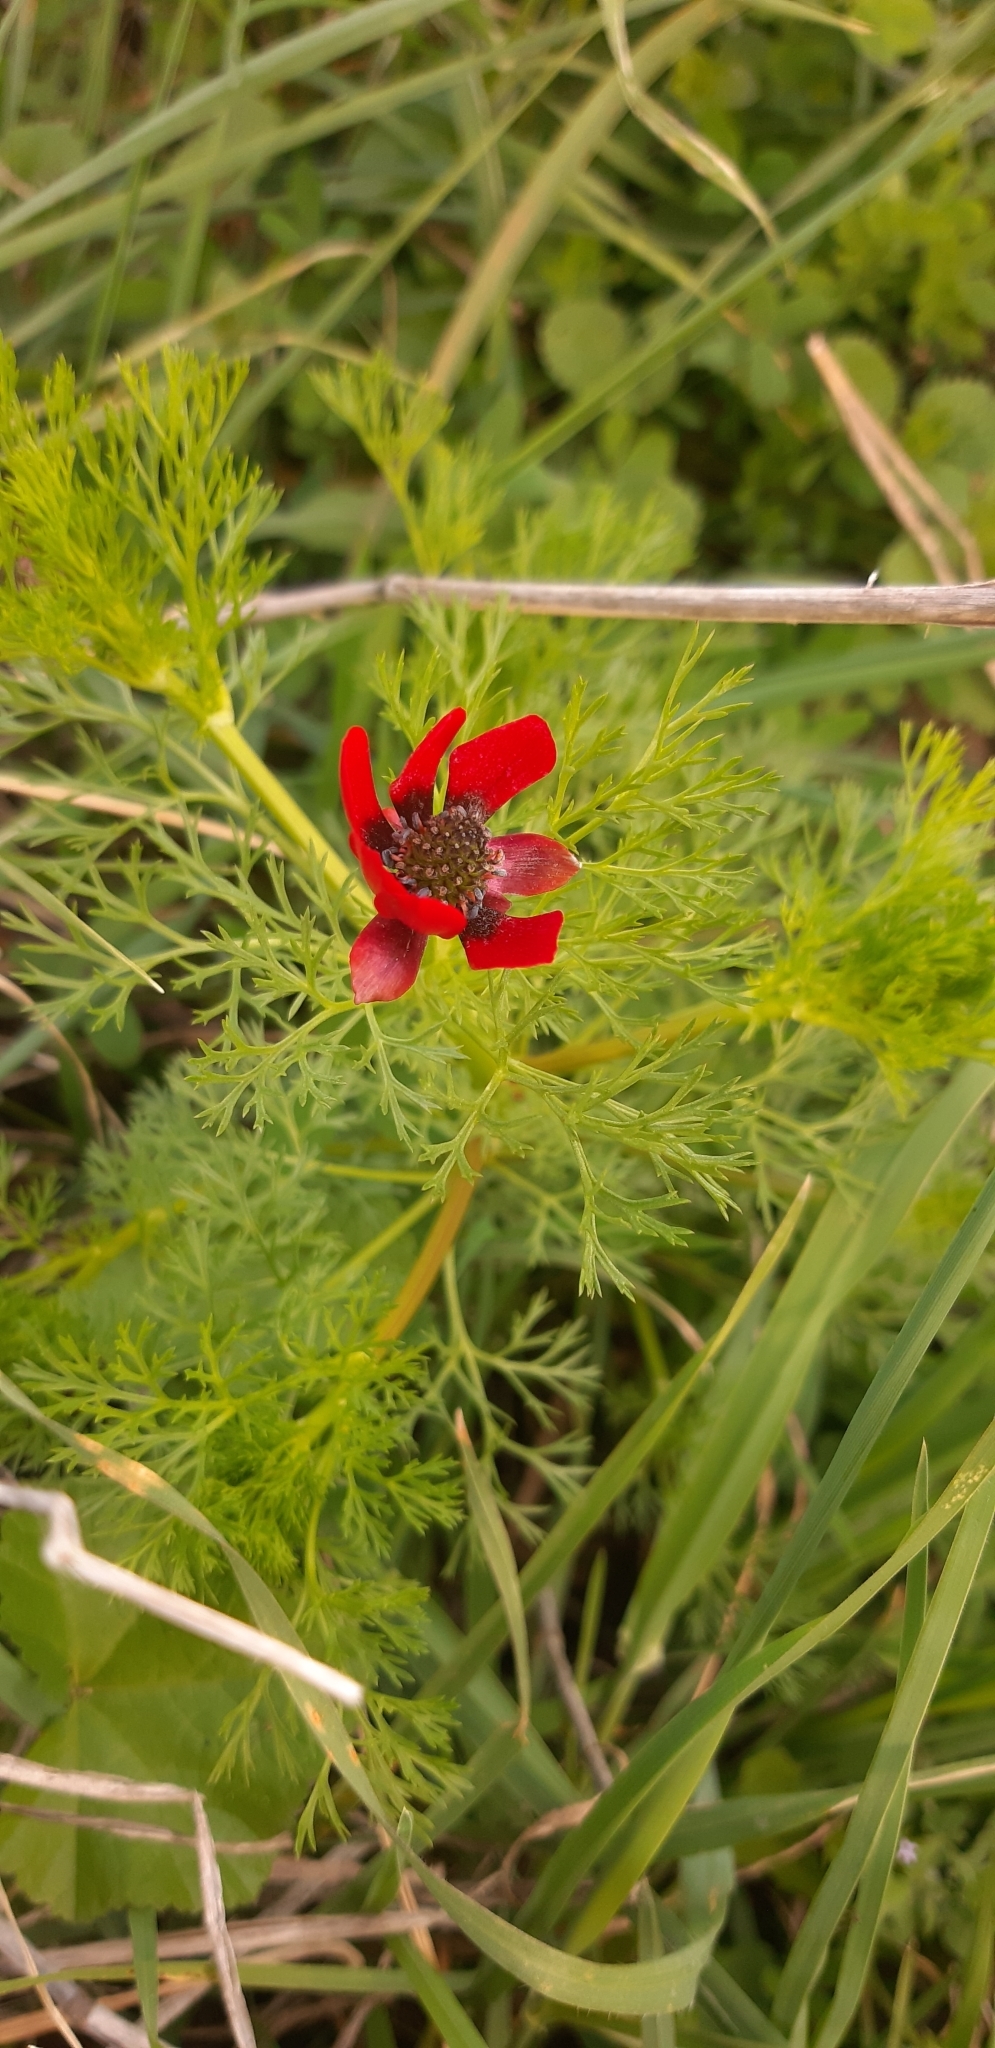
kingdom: Plantae
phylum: Tracheophyta
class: Magnoliopsida
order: Ranunculales
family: Ranunculaceae
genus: Adonis
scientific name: Adonis annua
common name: Pheasant's-eye
